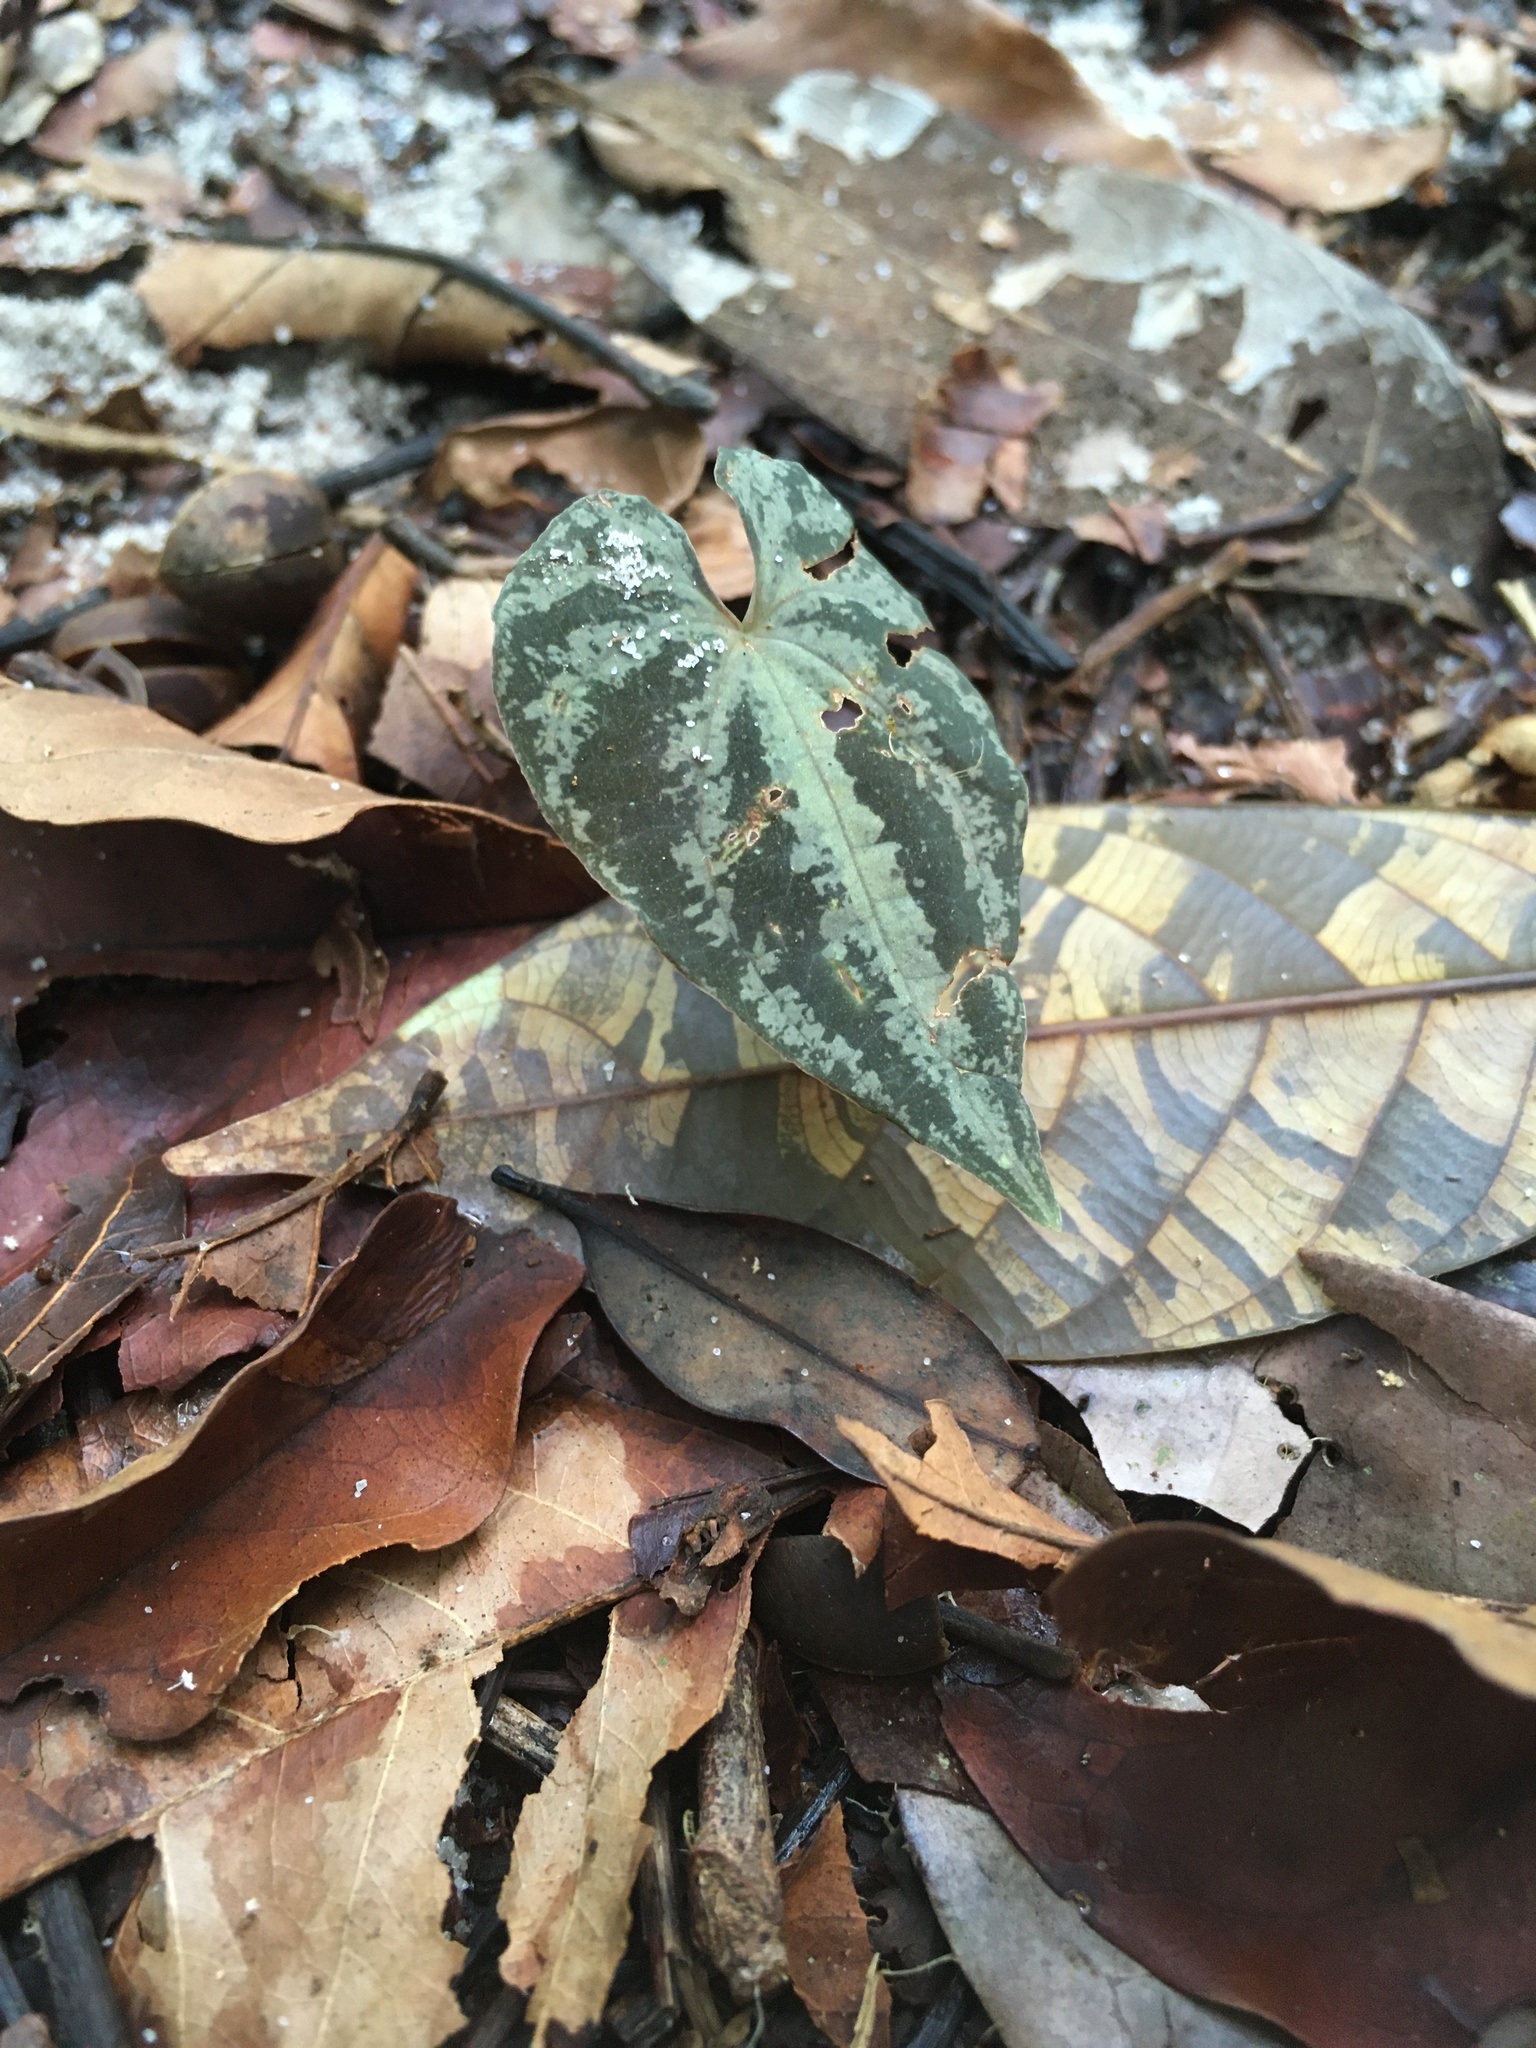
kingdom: Plantae
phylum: Tracheophyta
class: Liliopsida
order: Dioscoreales
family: Dioscoreaceae
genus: Dioscorea
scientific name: Dioscorea dodecaneura
